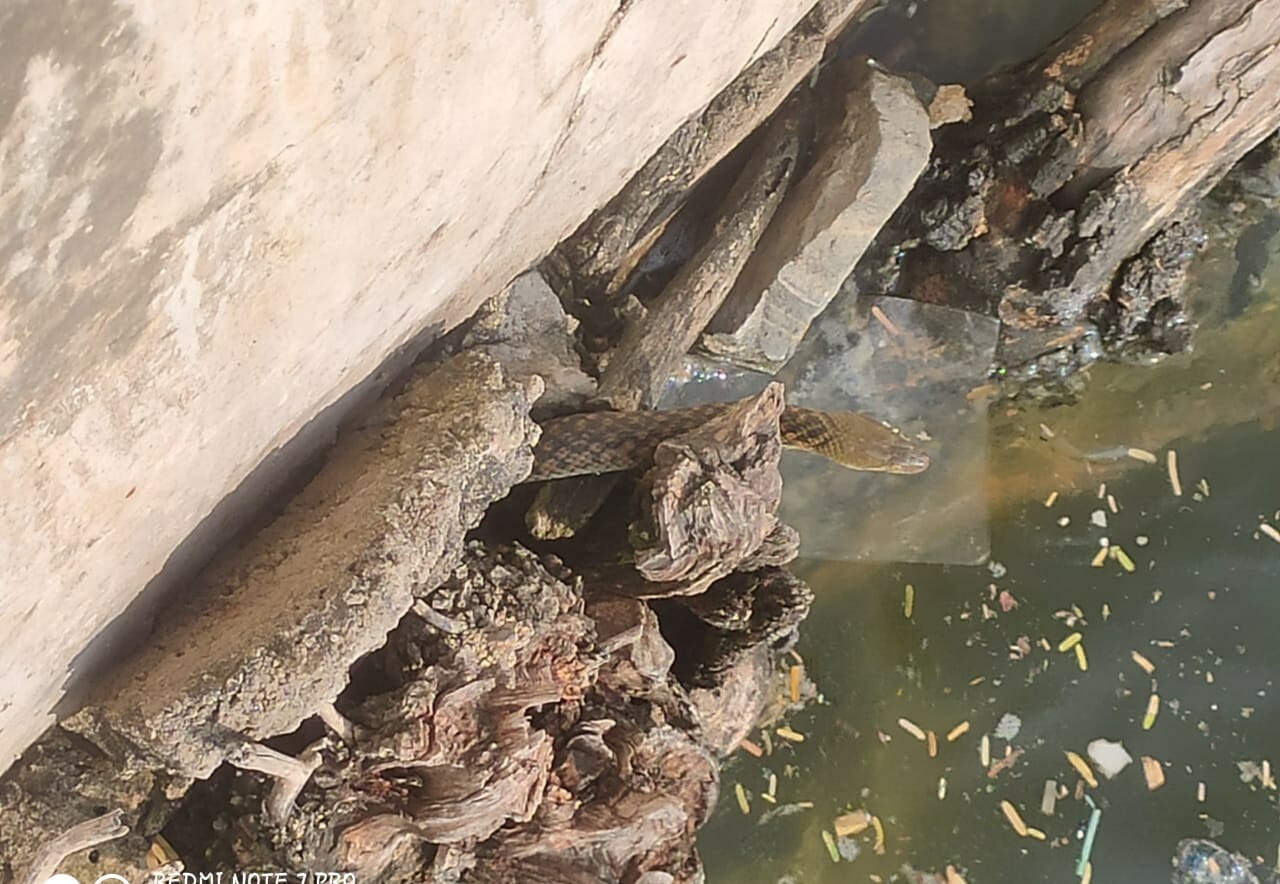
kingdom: Animalia
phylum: Chordata
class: Squamata
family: Colubridae
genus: Fowlea
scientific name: Fowlea piscator
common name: Asiatic water snake
